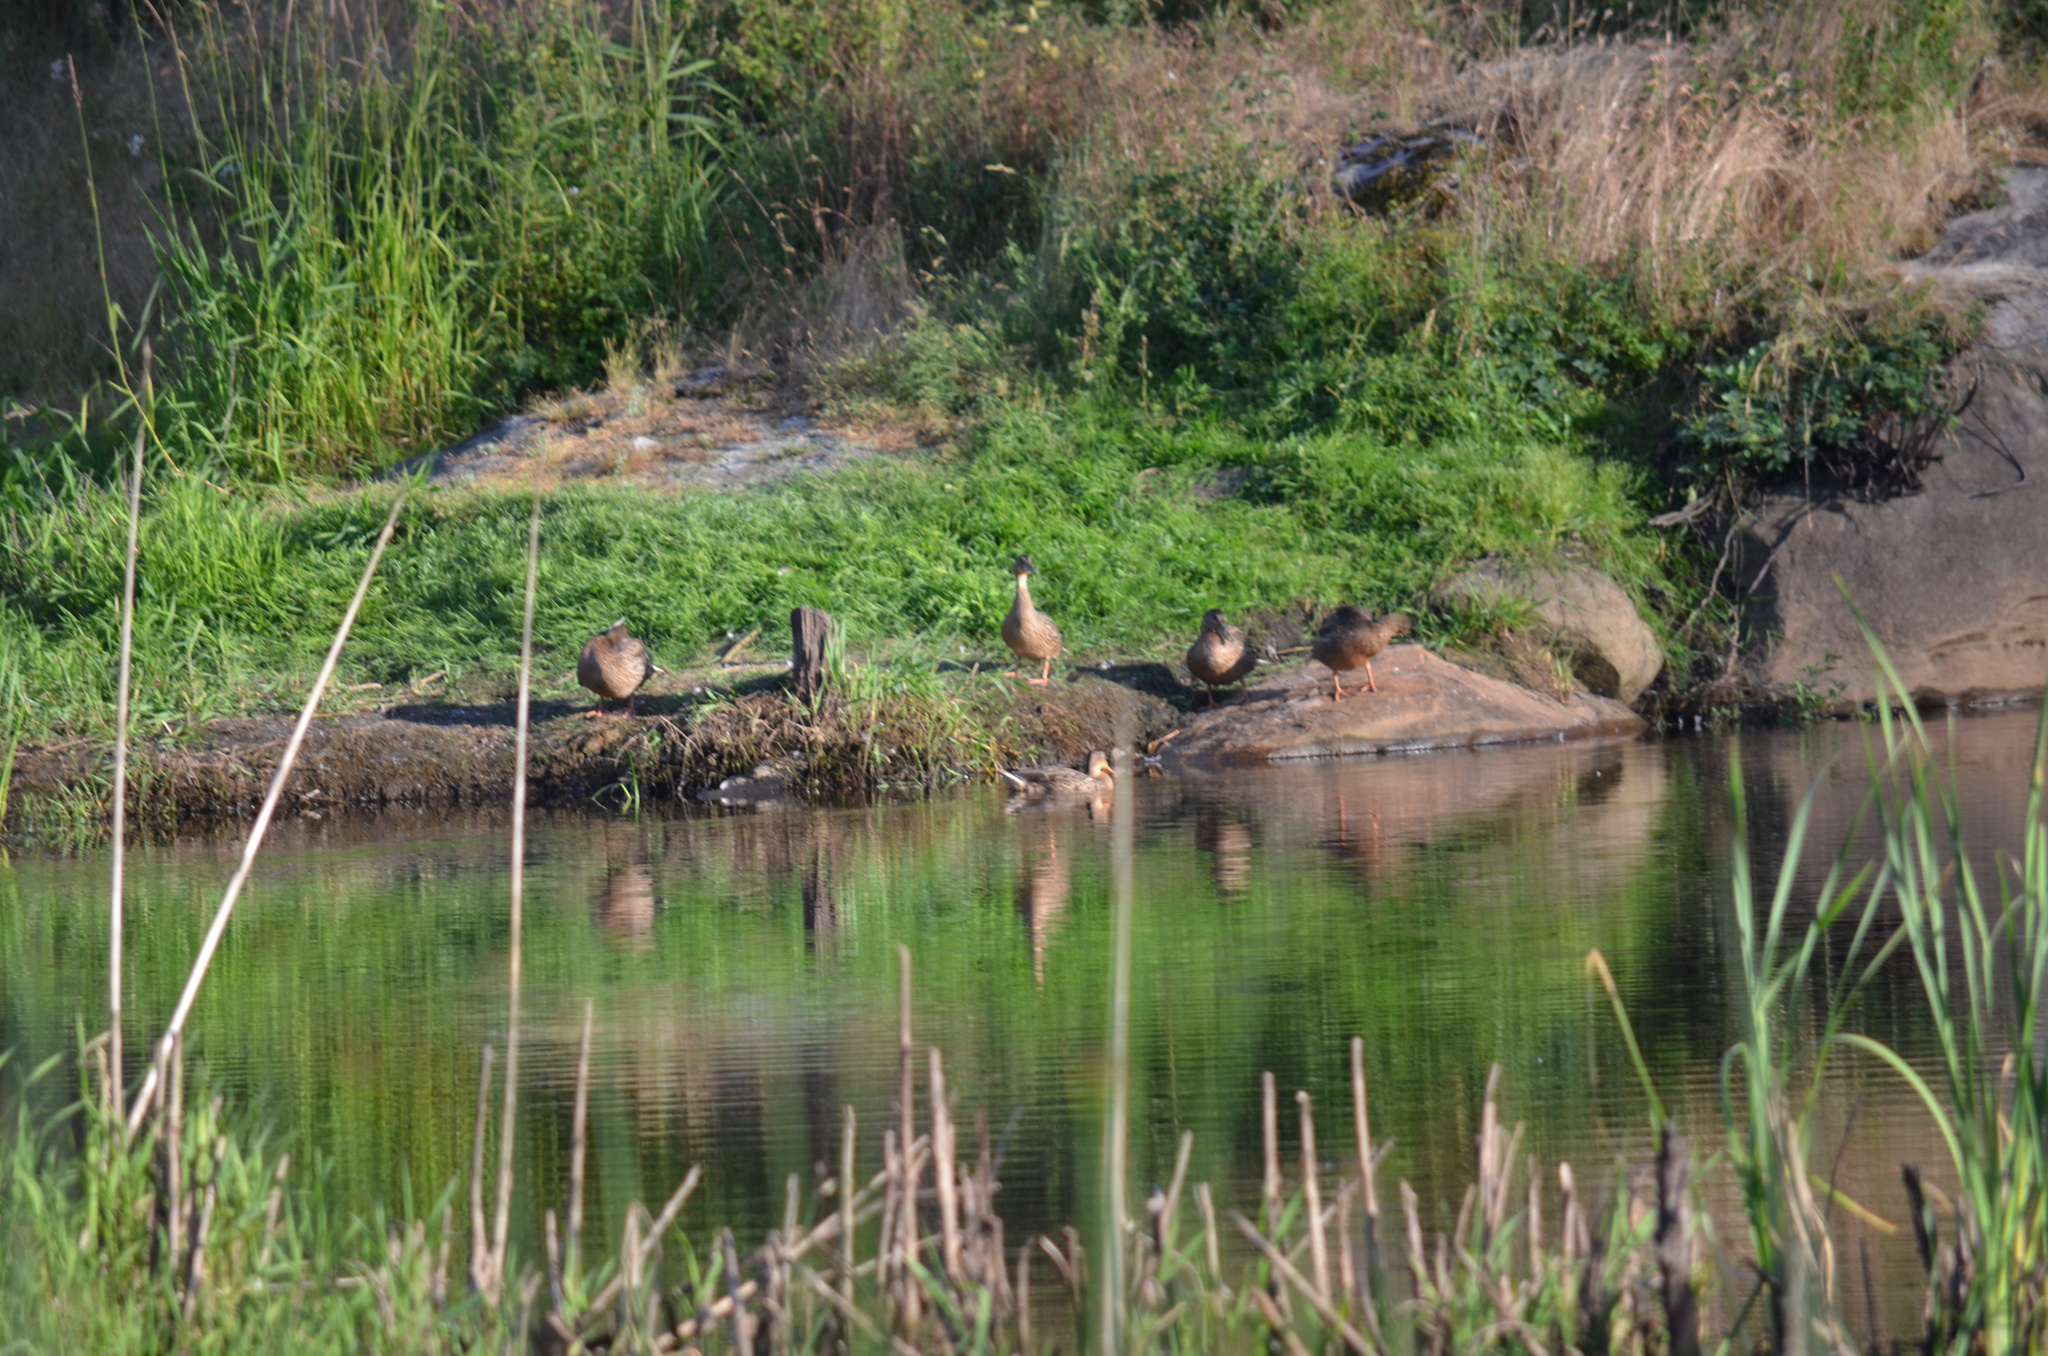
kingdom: Animalia
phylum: Chordata
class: Aves
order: Anseriformes
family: Anatidae
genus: Anas
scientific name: Anas platyrhynchos
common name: Mallard
